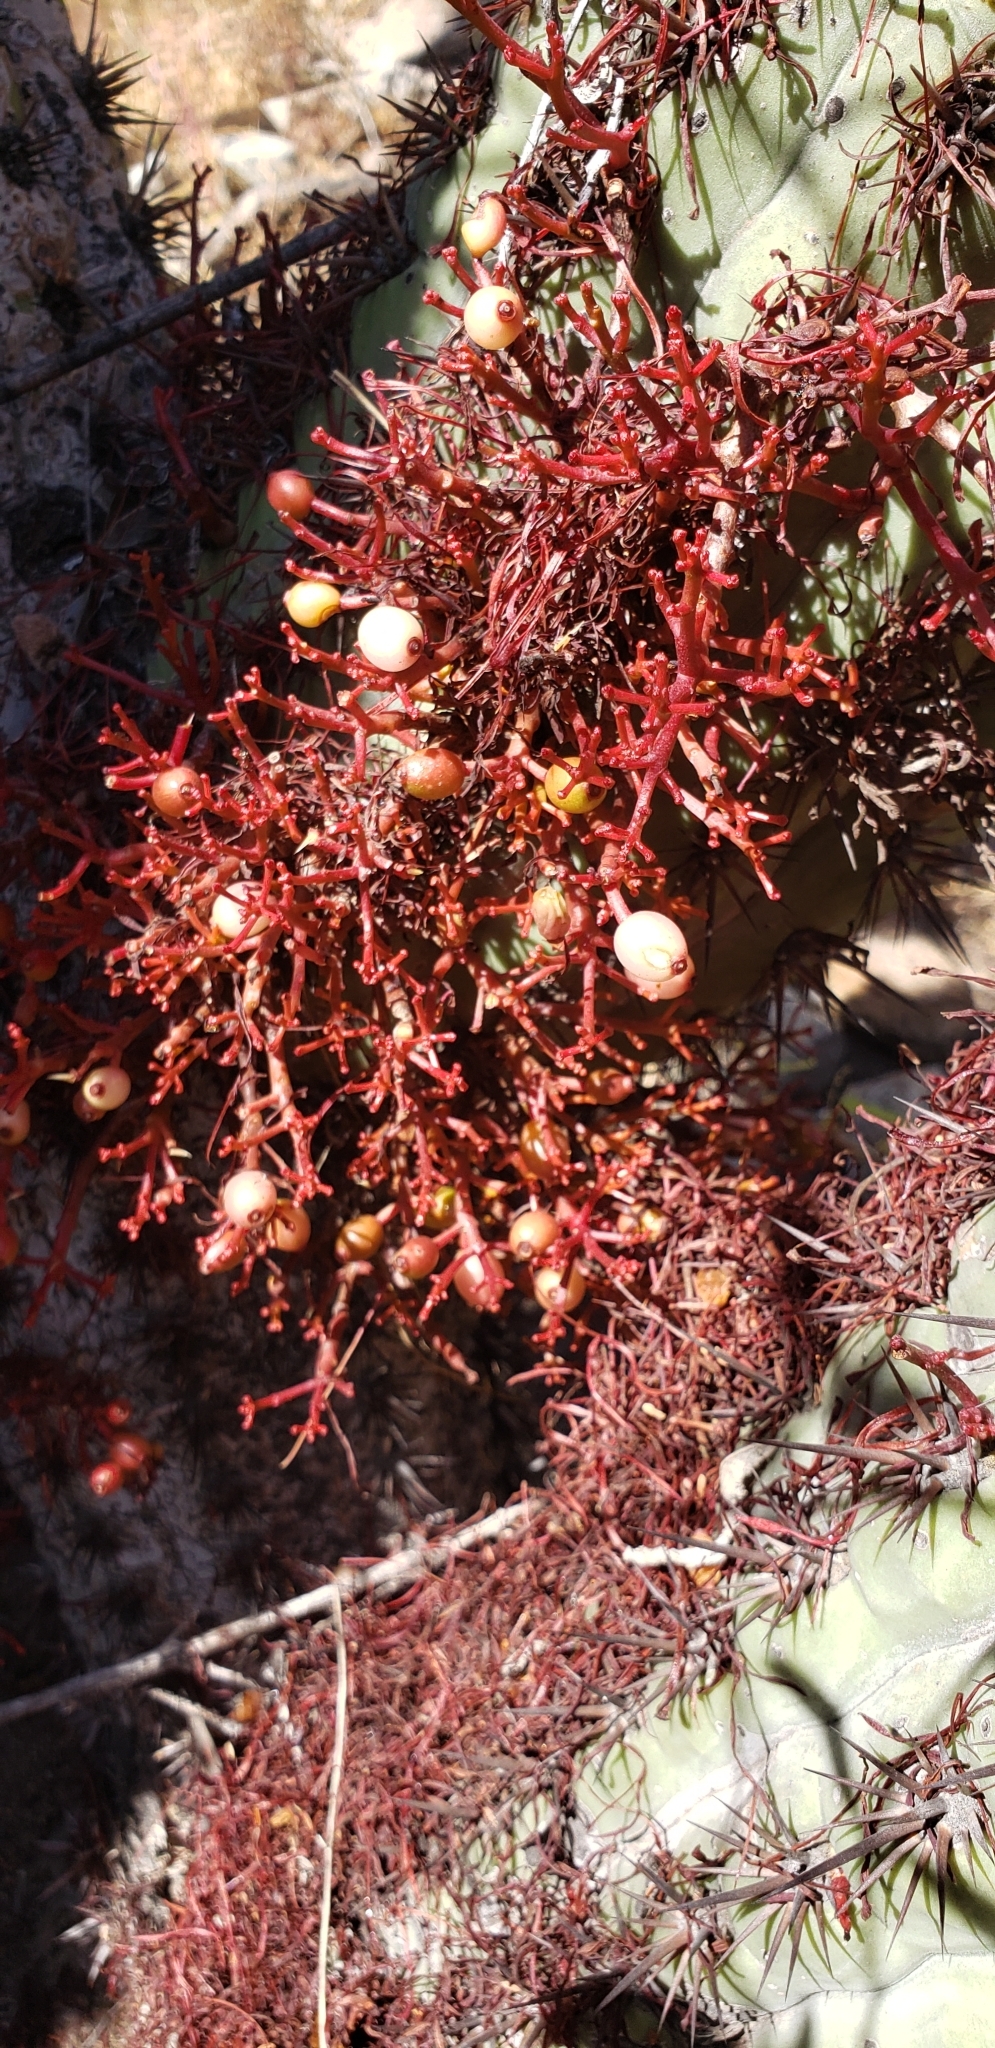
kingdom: Plantae
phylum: Tracheophyta
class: Magnoliopsida
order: Santalales
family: Loranthaceae
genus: Tristerix
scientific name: Tristerix aphyllus
